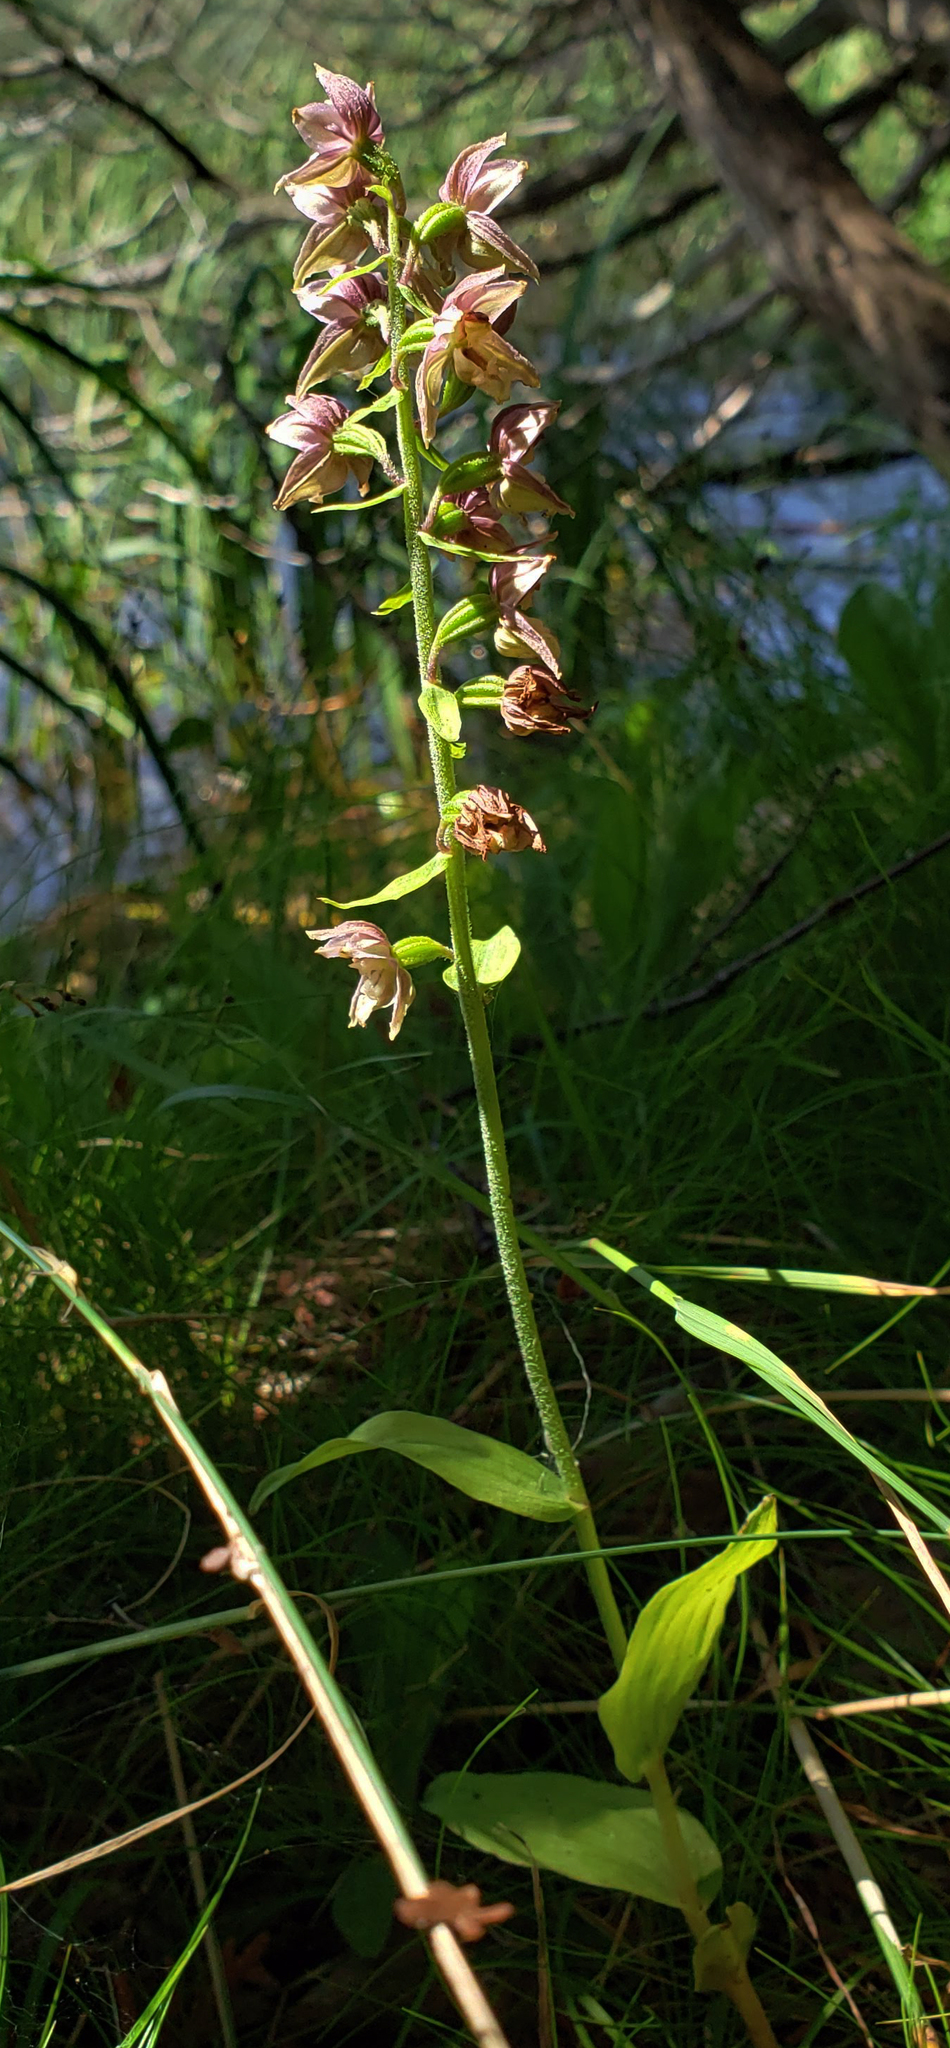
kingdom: Plantae
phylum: Tracheophyta
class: Liliopsida
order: Asparagales
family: Orchidaceae
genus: Epipactis
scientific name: Epipactis helleborine
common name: Broad-leaved helleborine
